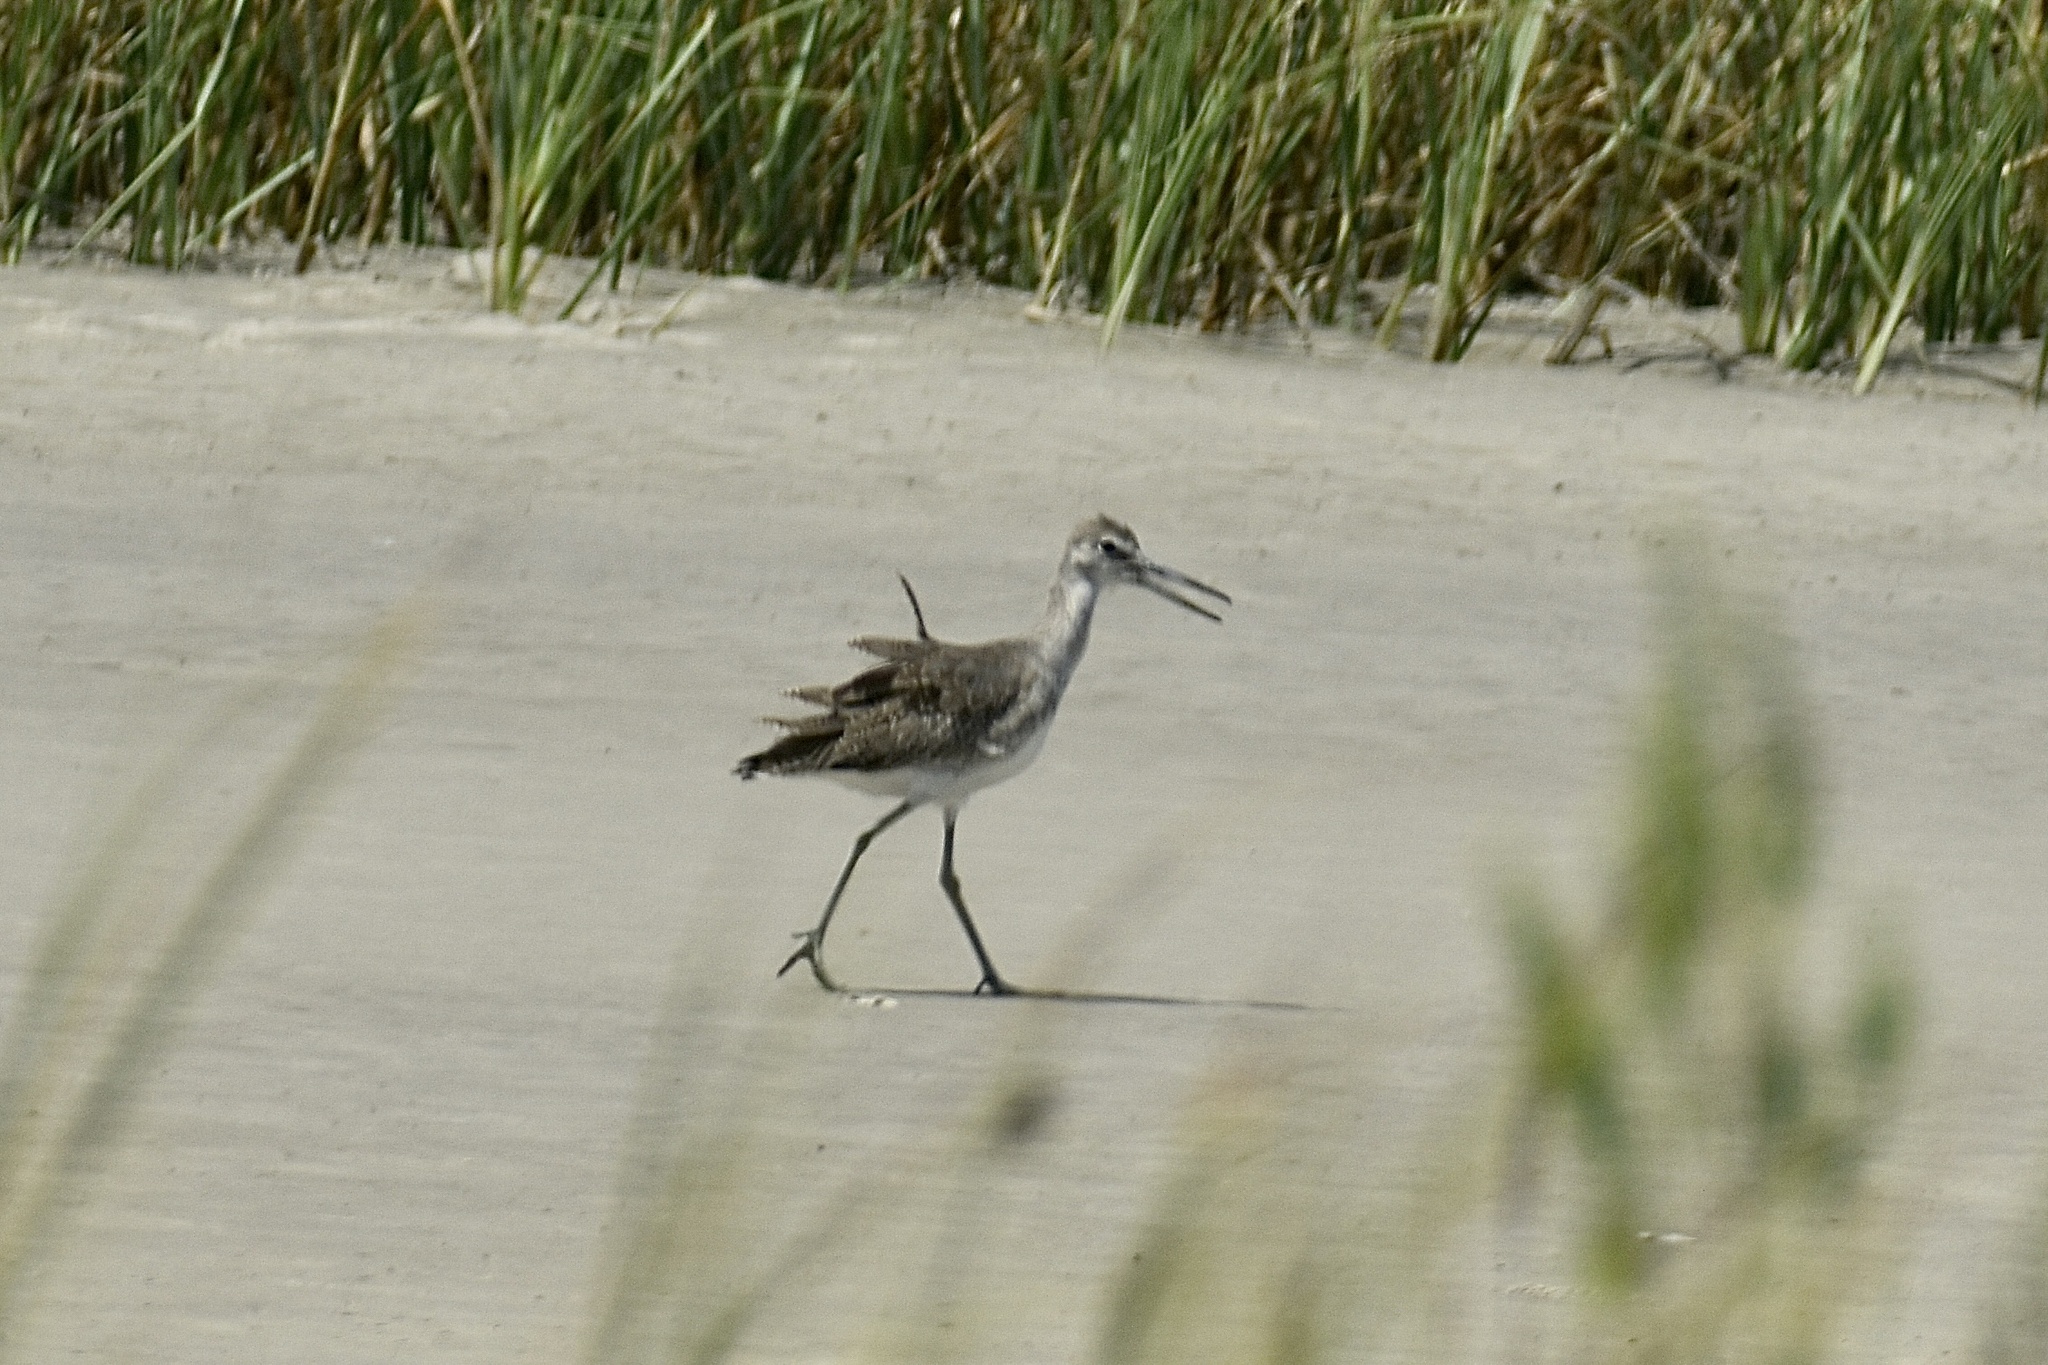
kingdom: Animalia
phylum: Chordata
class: Aves
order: Charadriiformes
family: Scolopacidae
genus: Tringa
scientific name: Tringa semipalmata
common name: Willet
